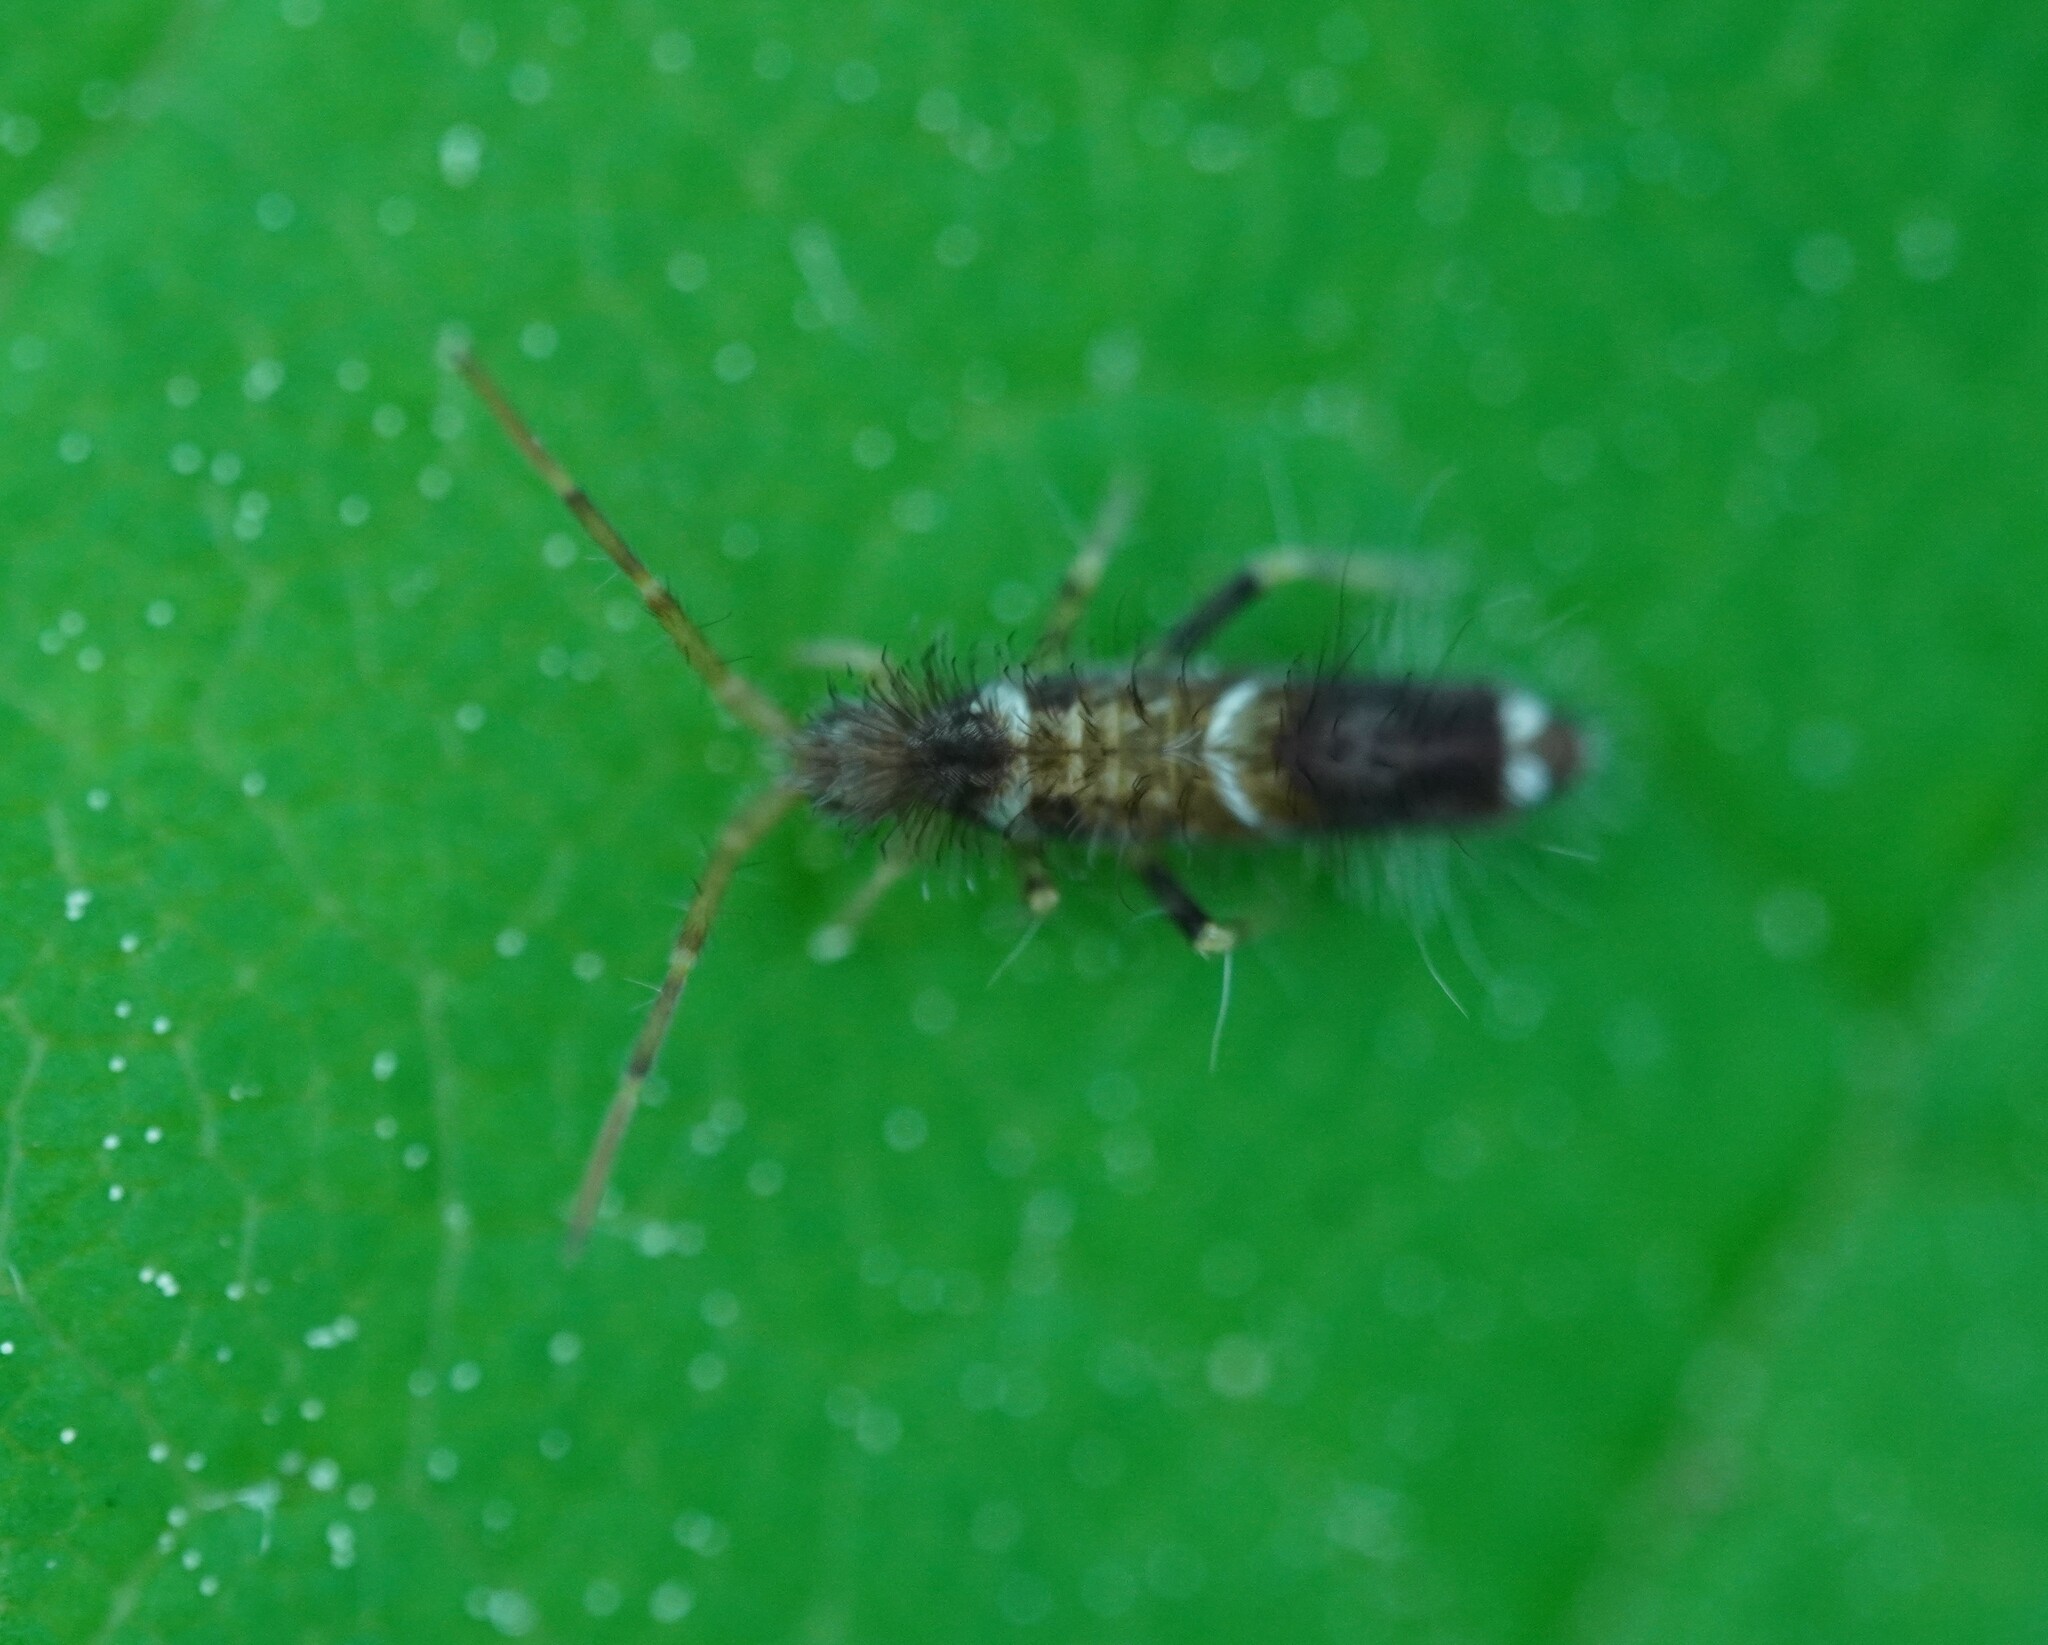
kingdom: Animalia
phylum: Arthropoda
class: Collembola
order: Entomobryomorpha
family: Entomobryidae
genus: Entomobrya
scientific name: Entomobrya dorsalis
